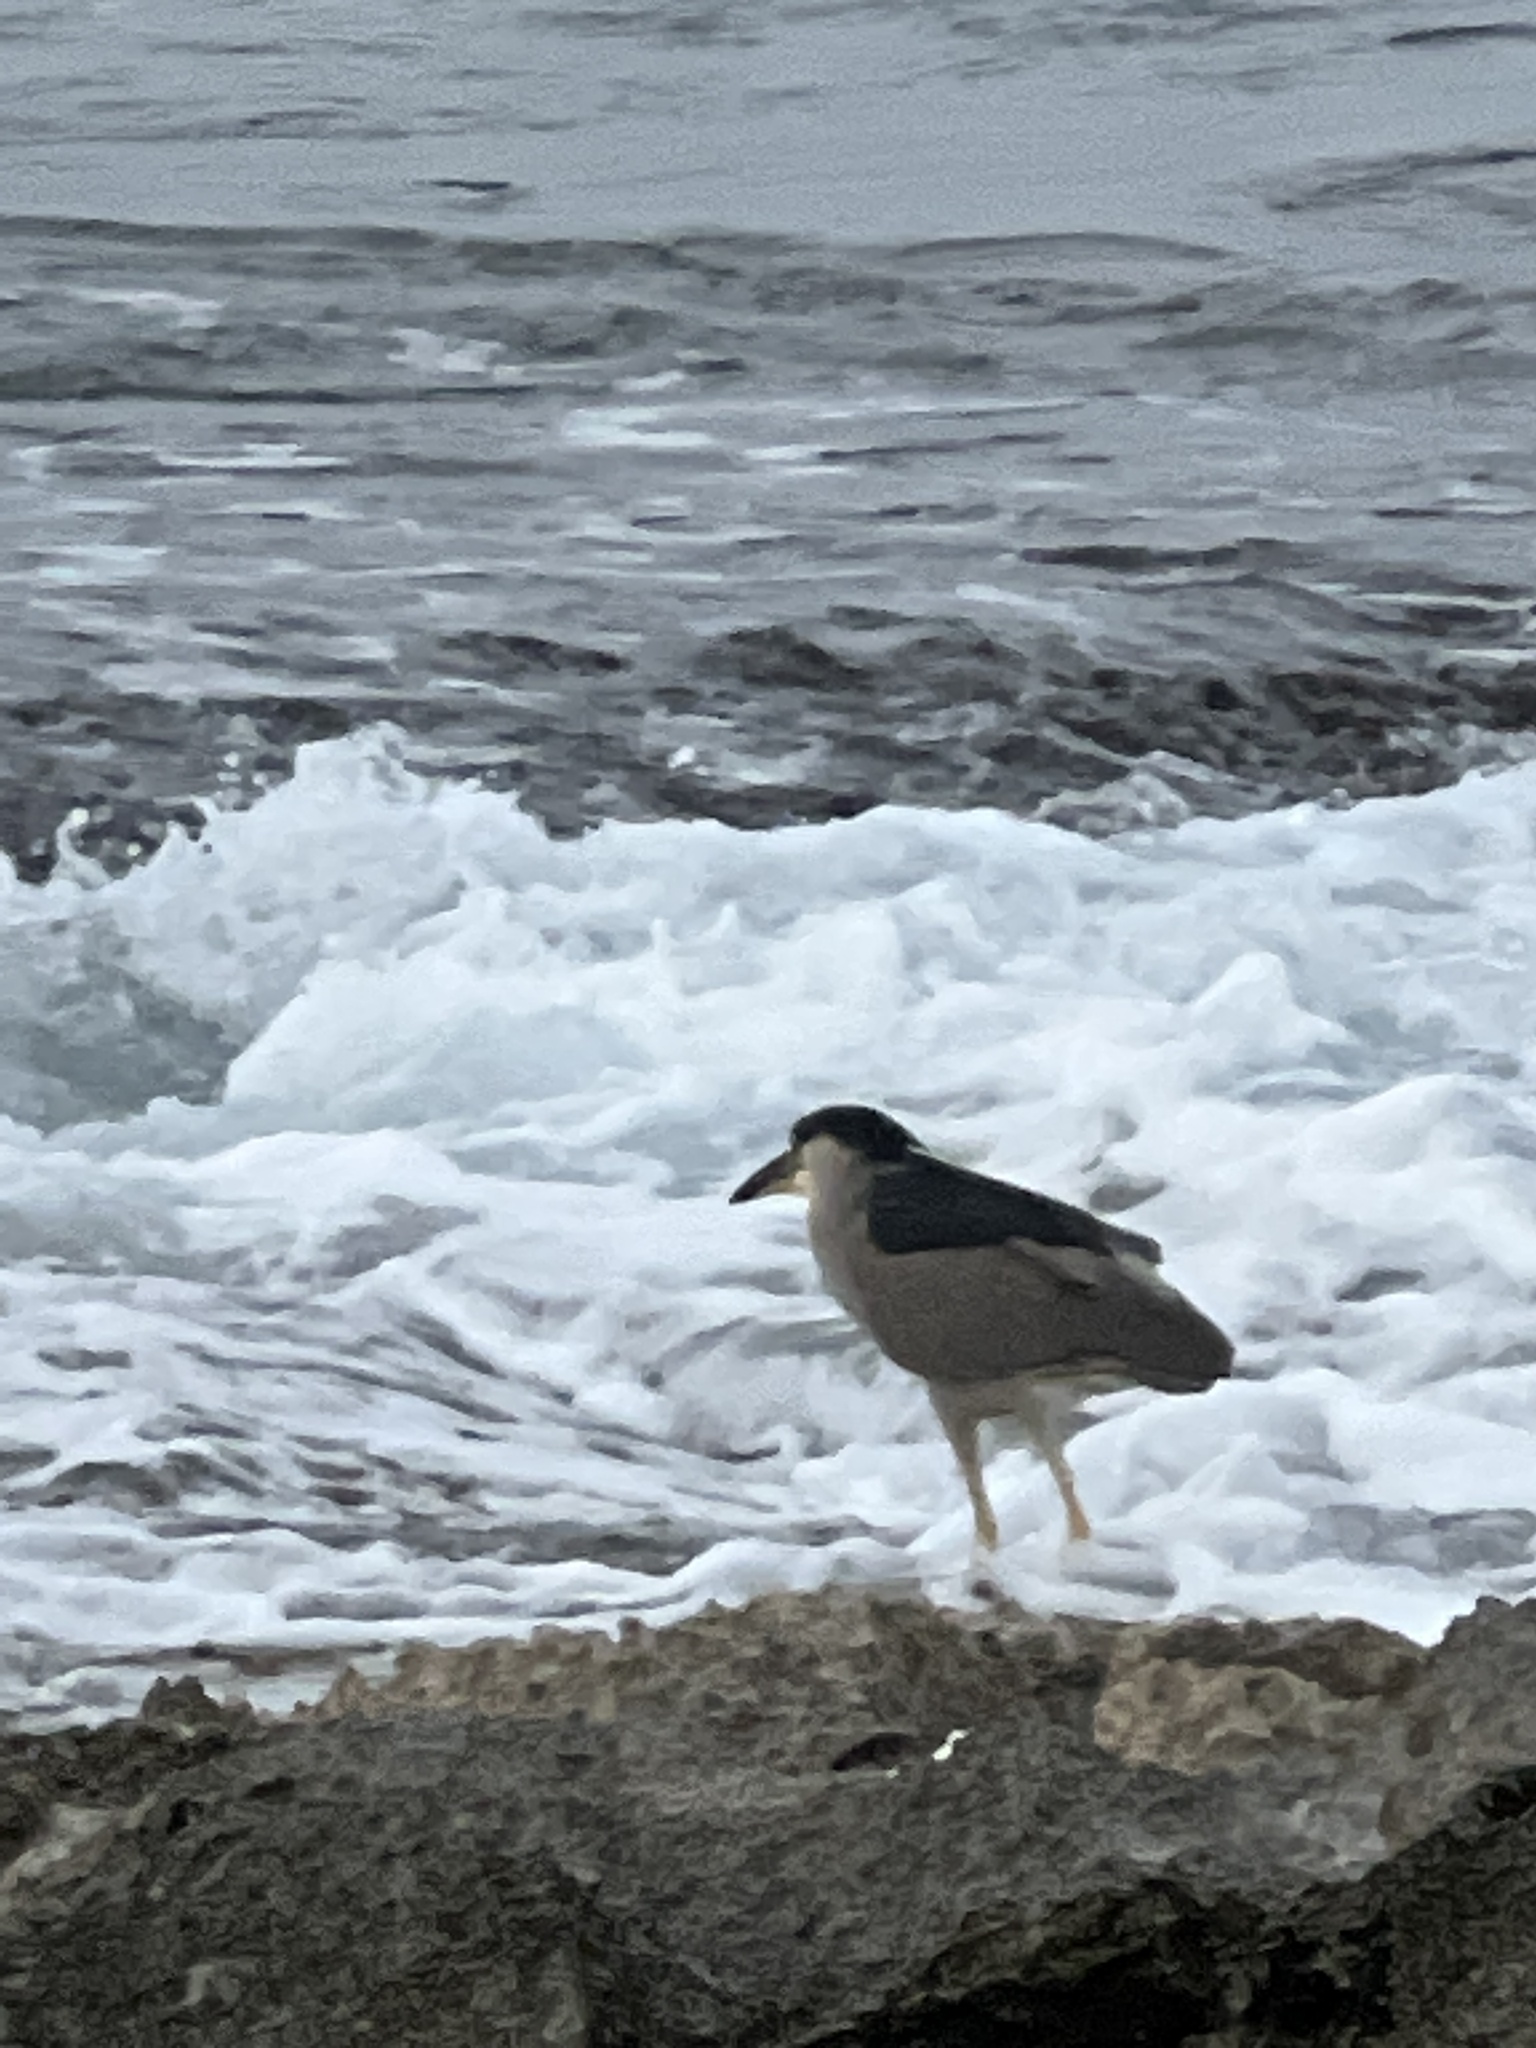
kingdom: Animalia
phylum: Chordata
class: Aves
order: Pelecaniformes
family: Ardeidae
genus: Nycticorax
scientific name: Nycticorax nycticorax
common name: Black-crowned night heron
